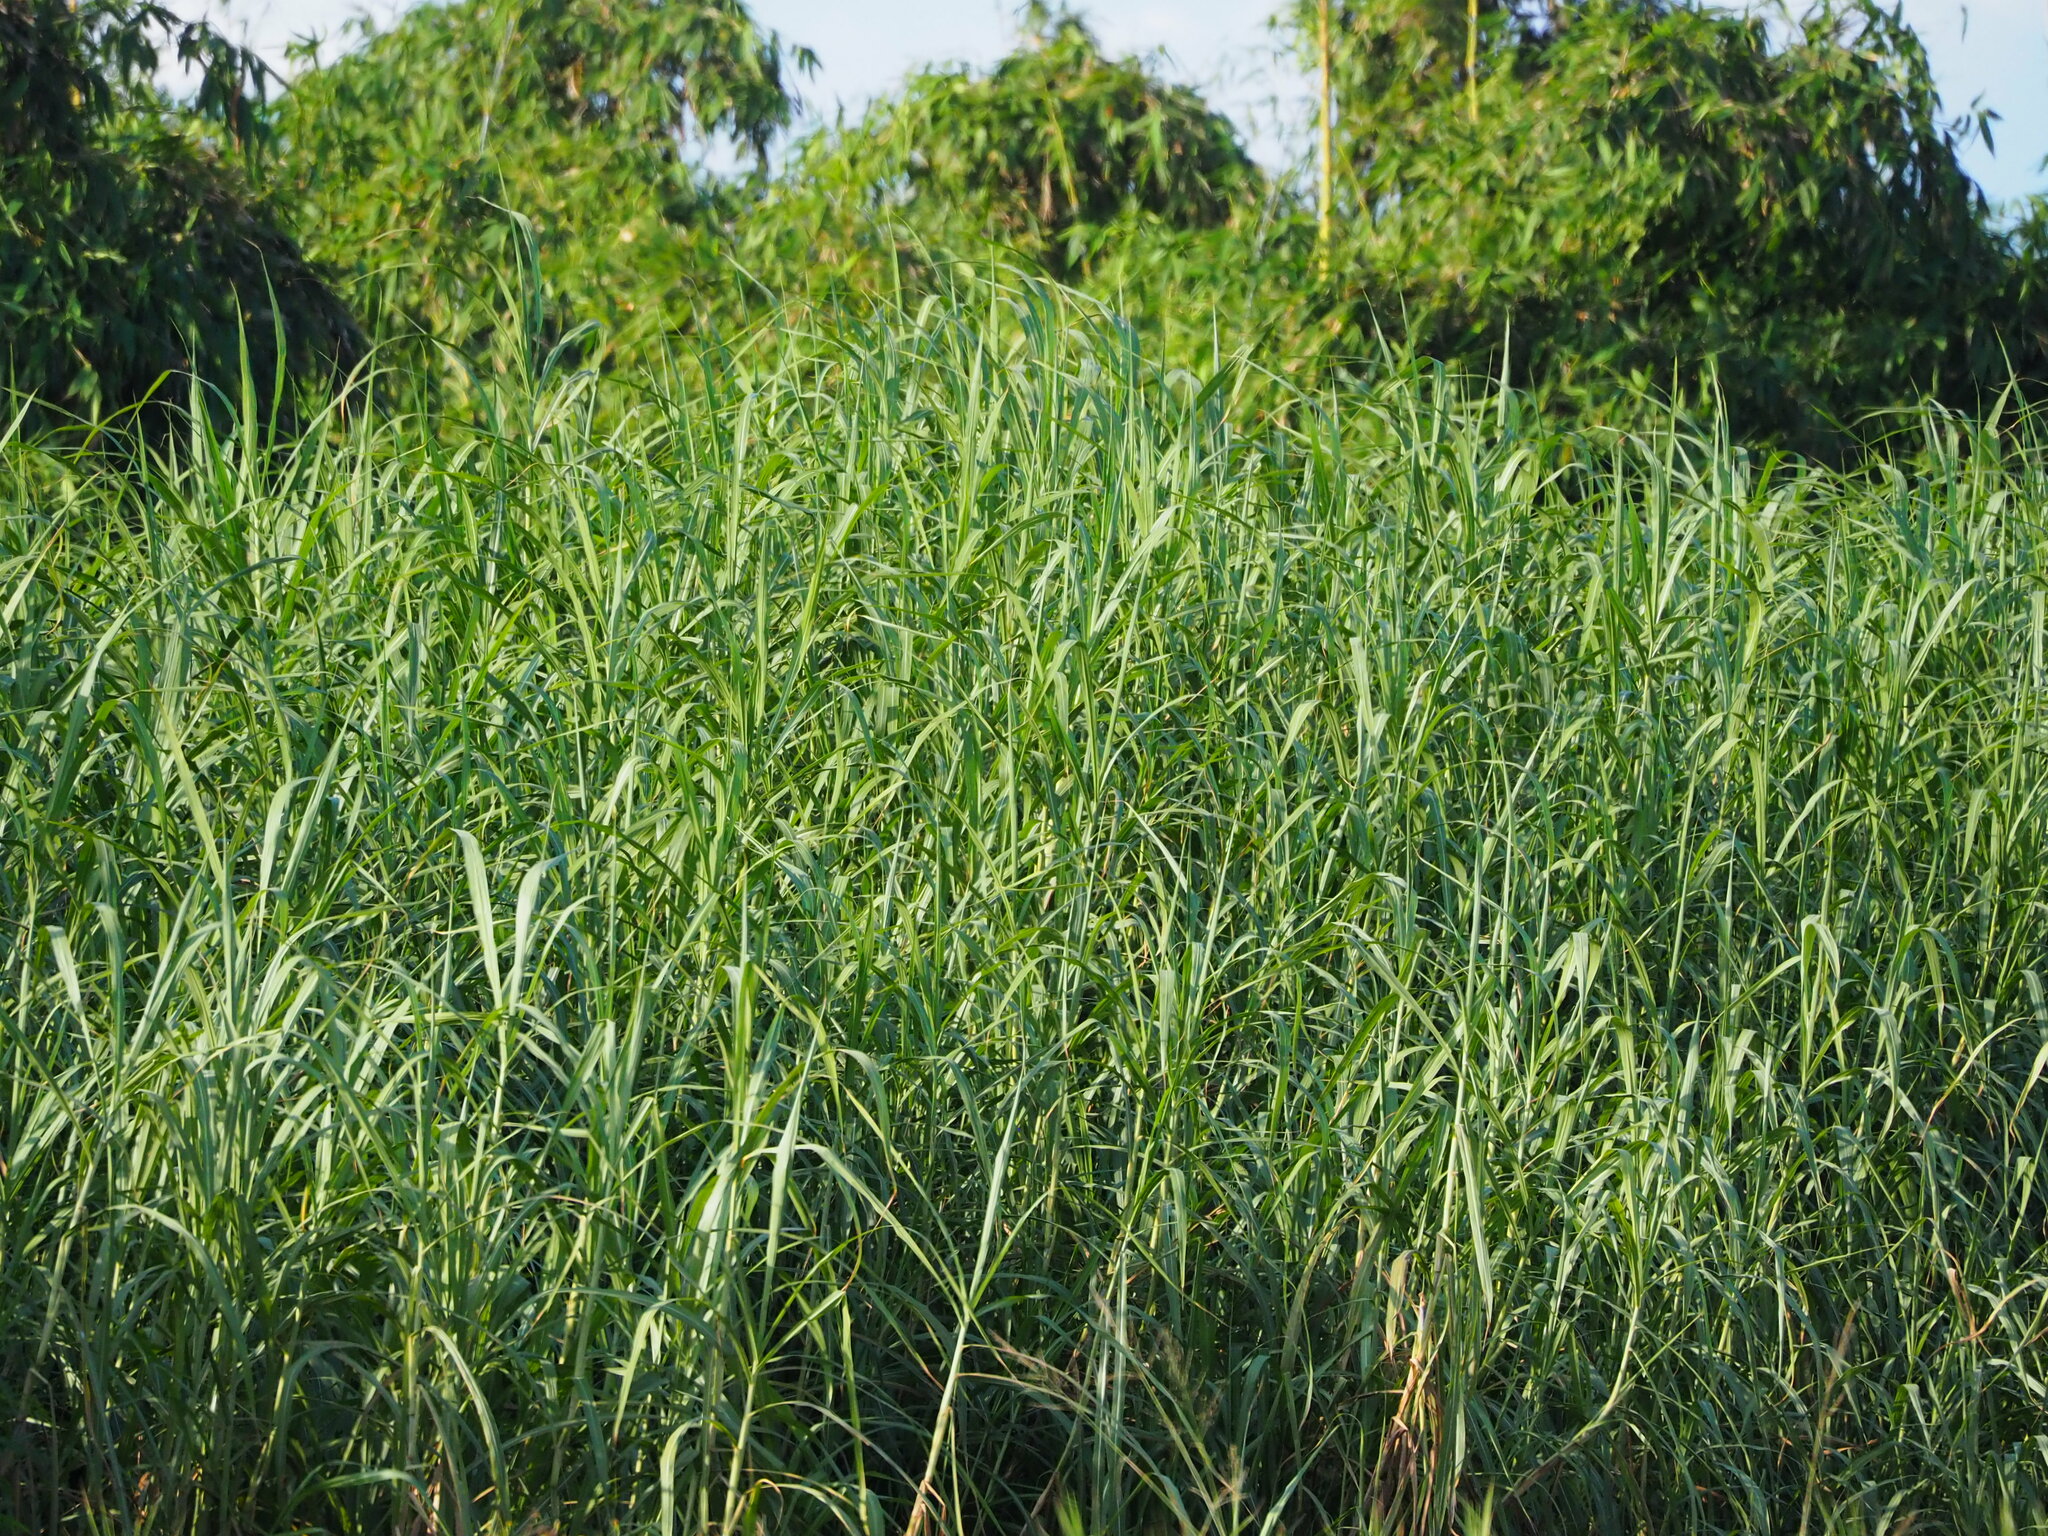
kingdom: Plantae
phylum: Tracheophyta
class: Liliopsida
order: Poales
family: Poaceae
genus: Cenchrus
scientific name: Cenchrus purpureus
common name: Elephant grass
